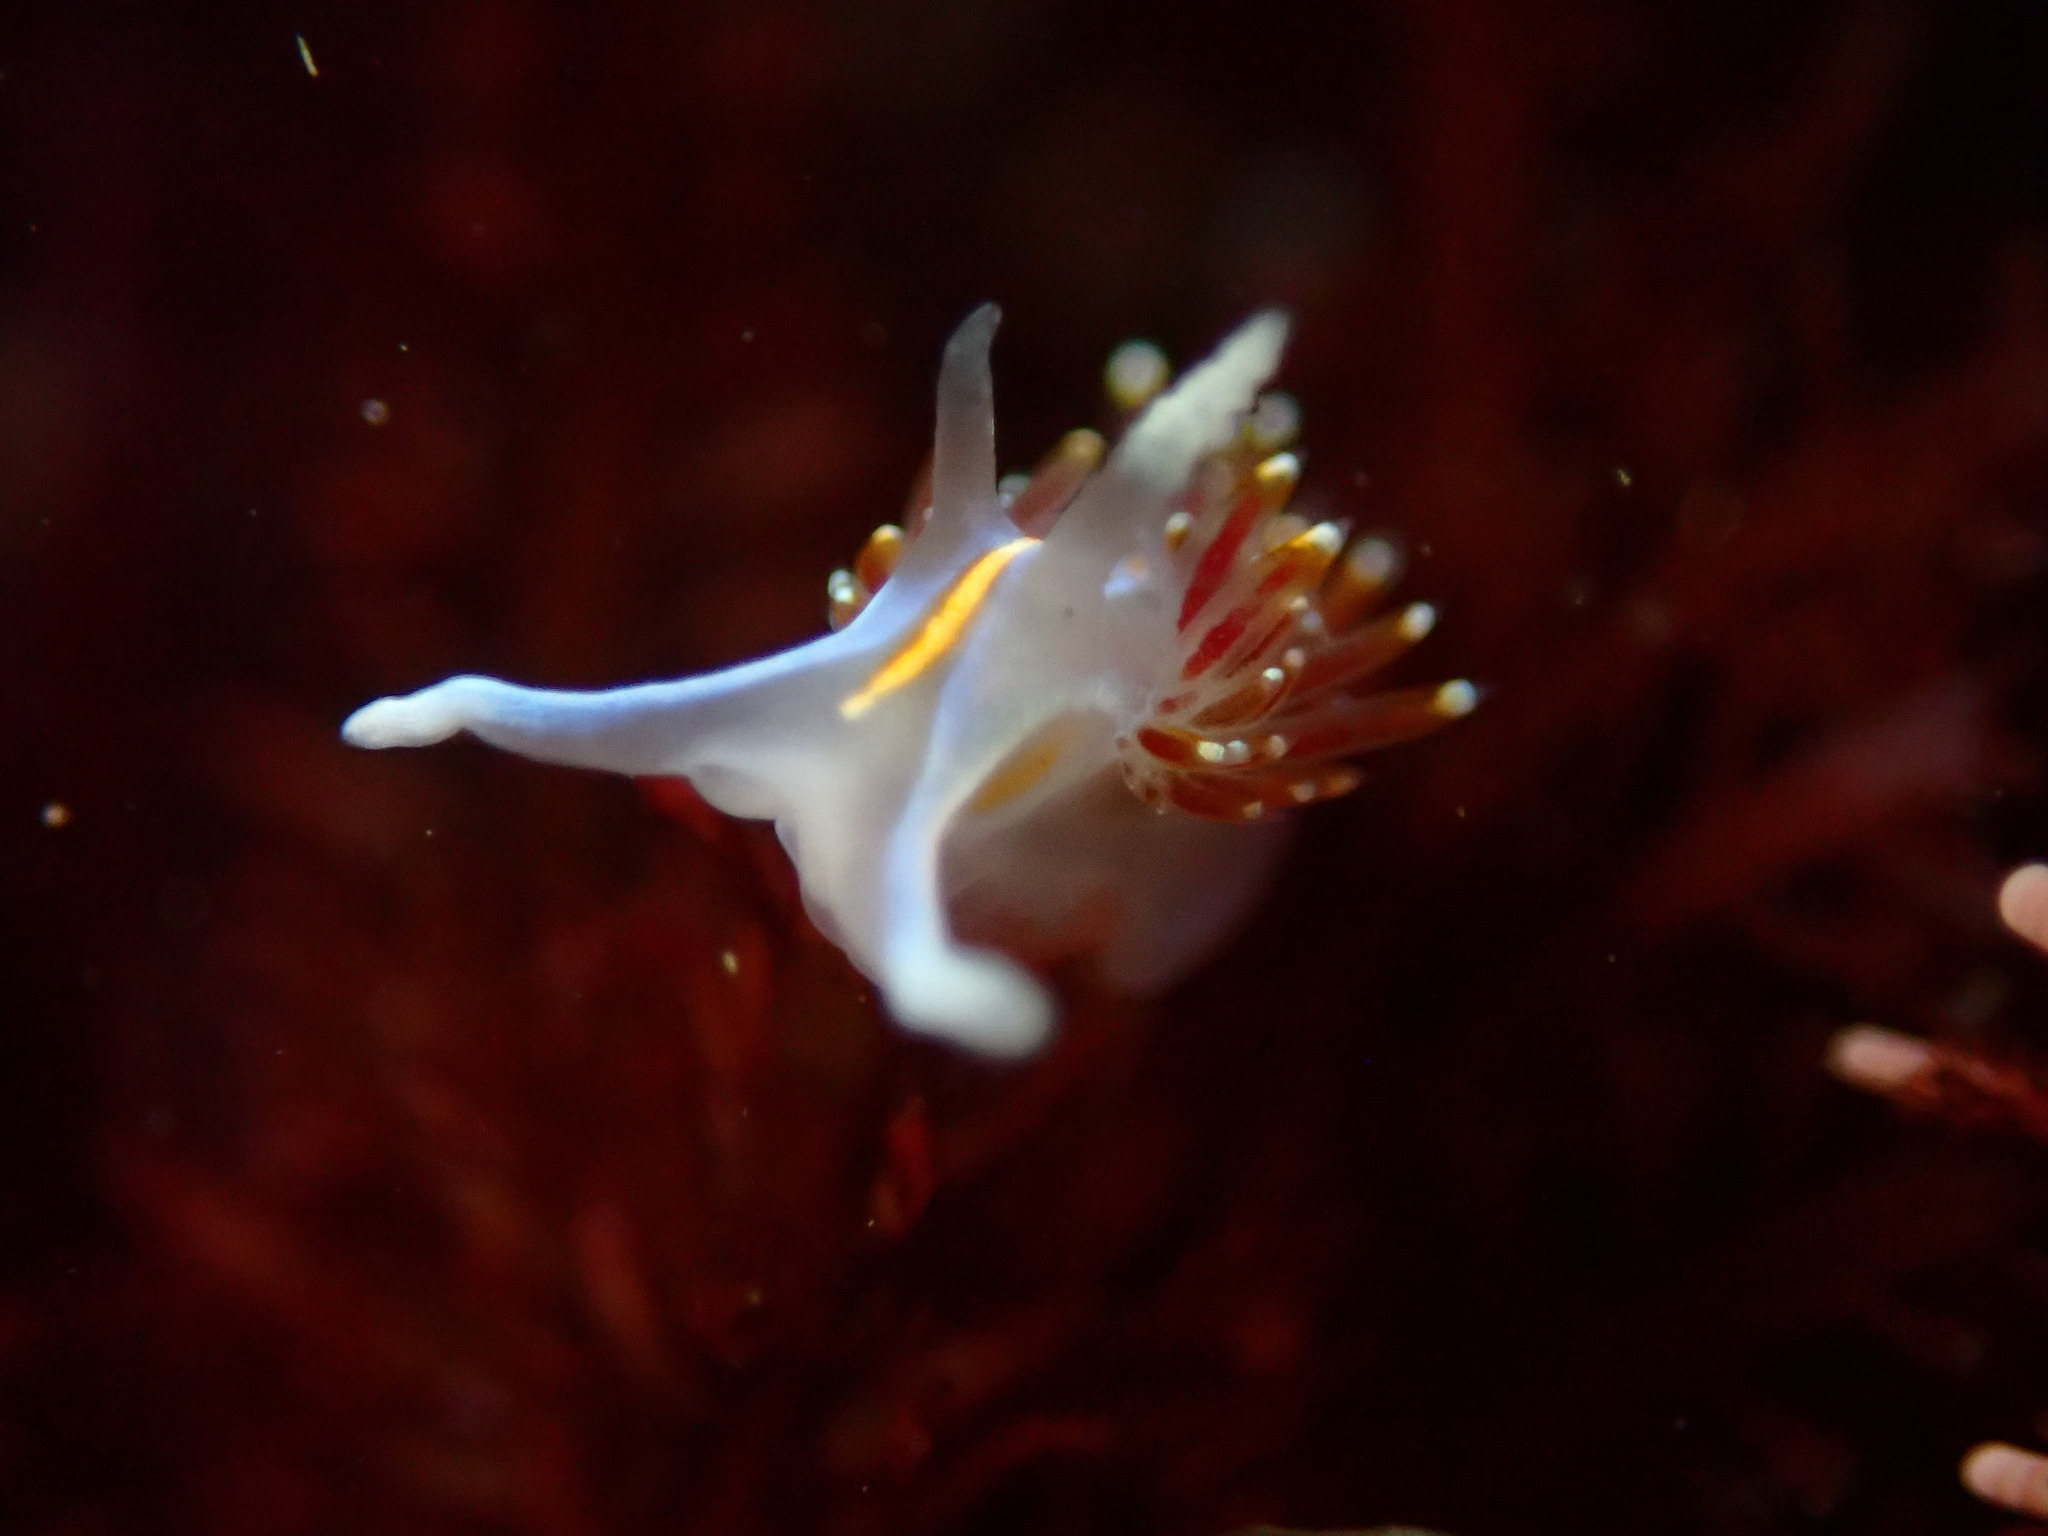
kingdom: Animalia
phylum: Mollusca
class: Gastropoda
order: Nudibranchia
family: Myrrhinidae
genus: Hermissenda
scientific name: Hermissenda opalescens
